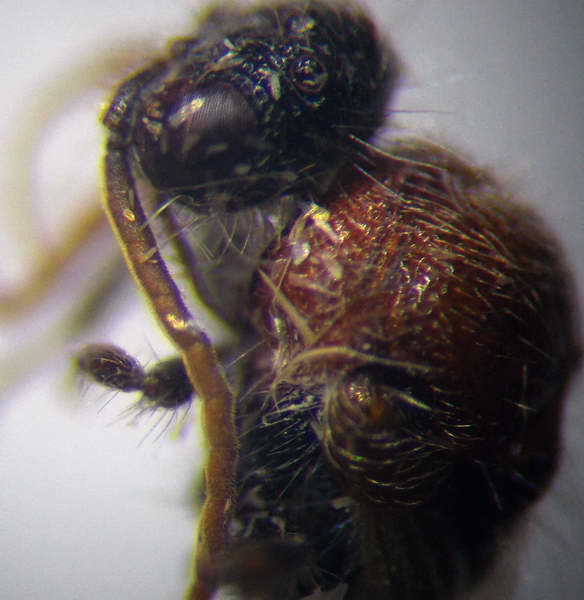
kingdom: Animalia
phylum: Arthropoda
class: Insecta
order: Hymenoptera
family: Mutillidae
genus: Smicromyrme
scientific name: Smicromyrme rufipes
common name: Small velvet ant
